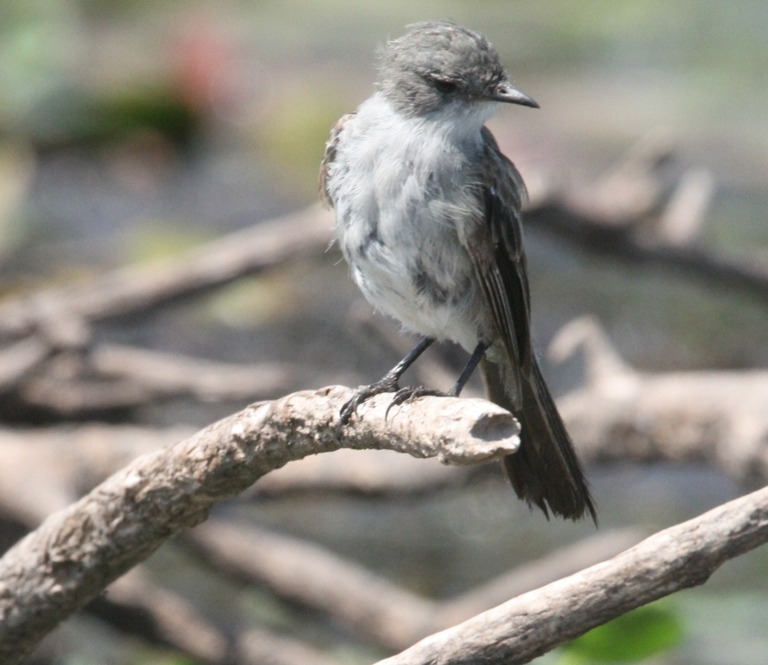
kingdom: Animalia
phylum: Chordata
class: Aves
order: Passeriformes
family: Tyrannidae
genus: Serpophaga
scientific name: Serpophaga nigricans
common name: Sooty tyrannulet
